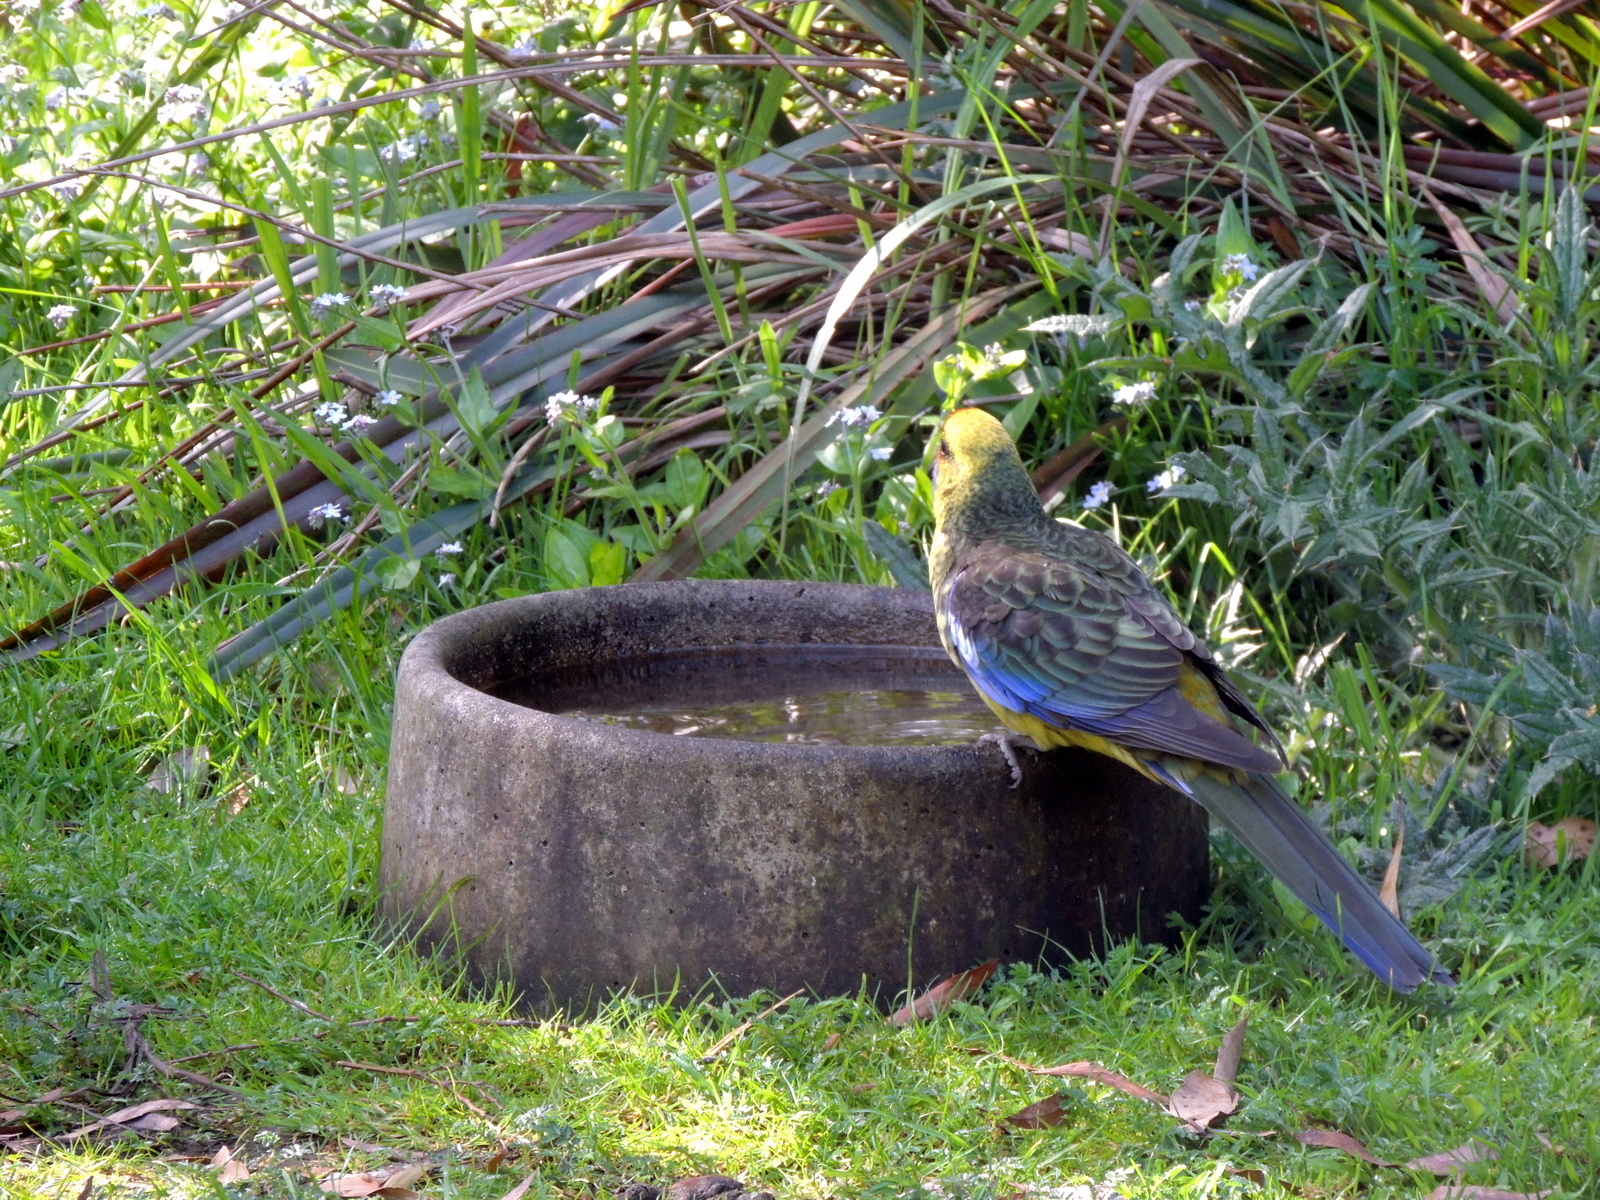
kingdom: Animalia
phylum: Chordata
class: Aves
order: Psittaciformes
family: Psittacidae
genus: Platycercus
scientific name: Platycercus caledonicus
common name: Green rosella
